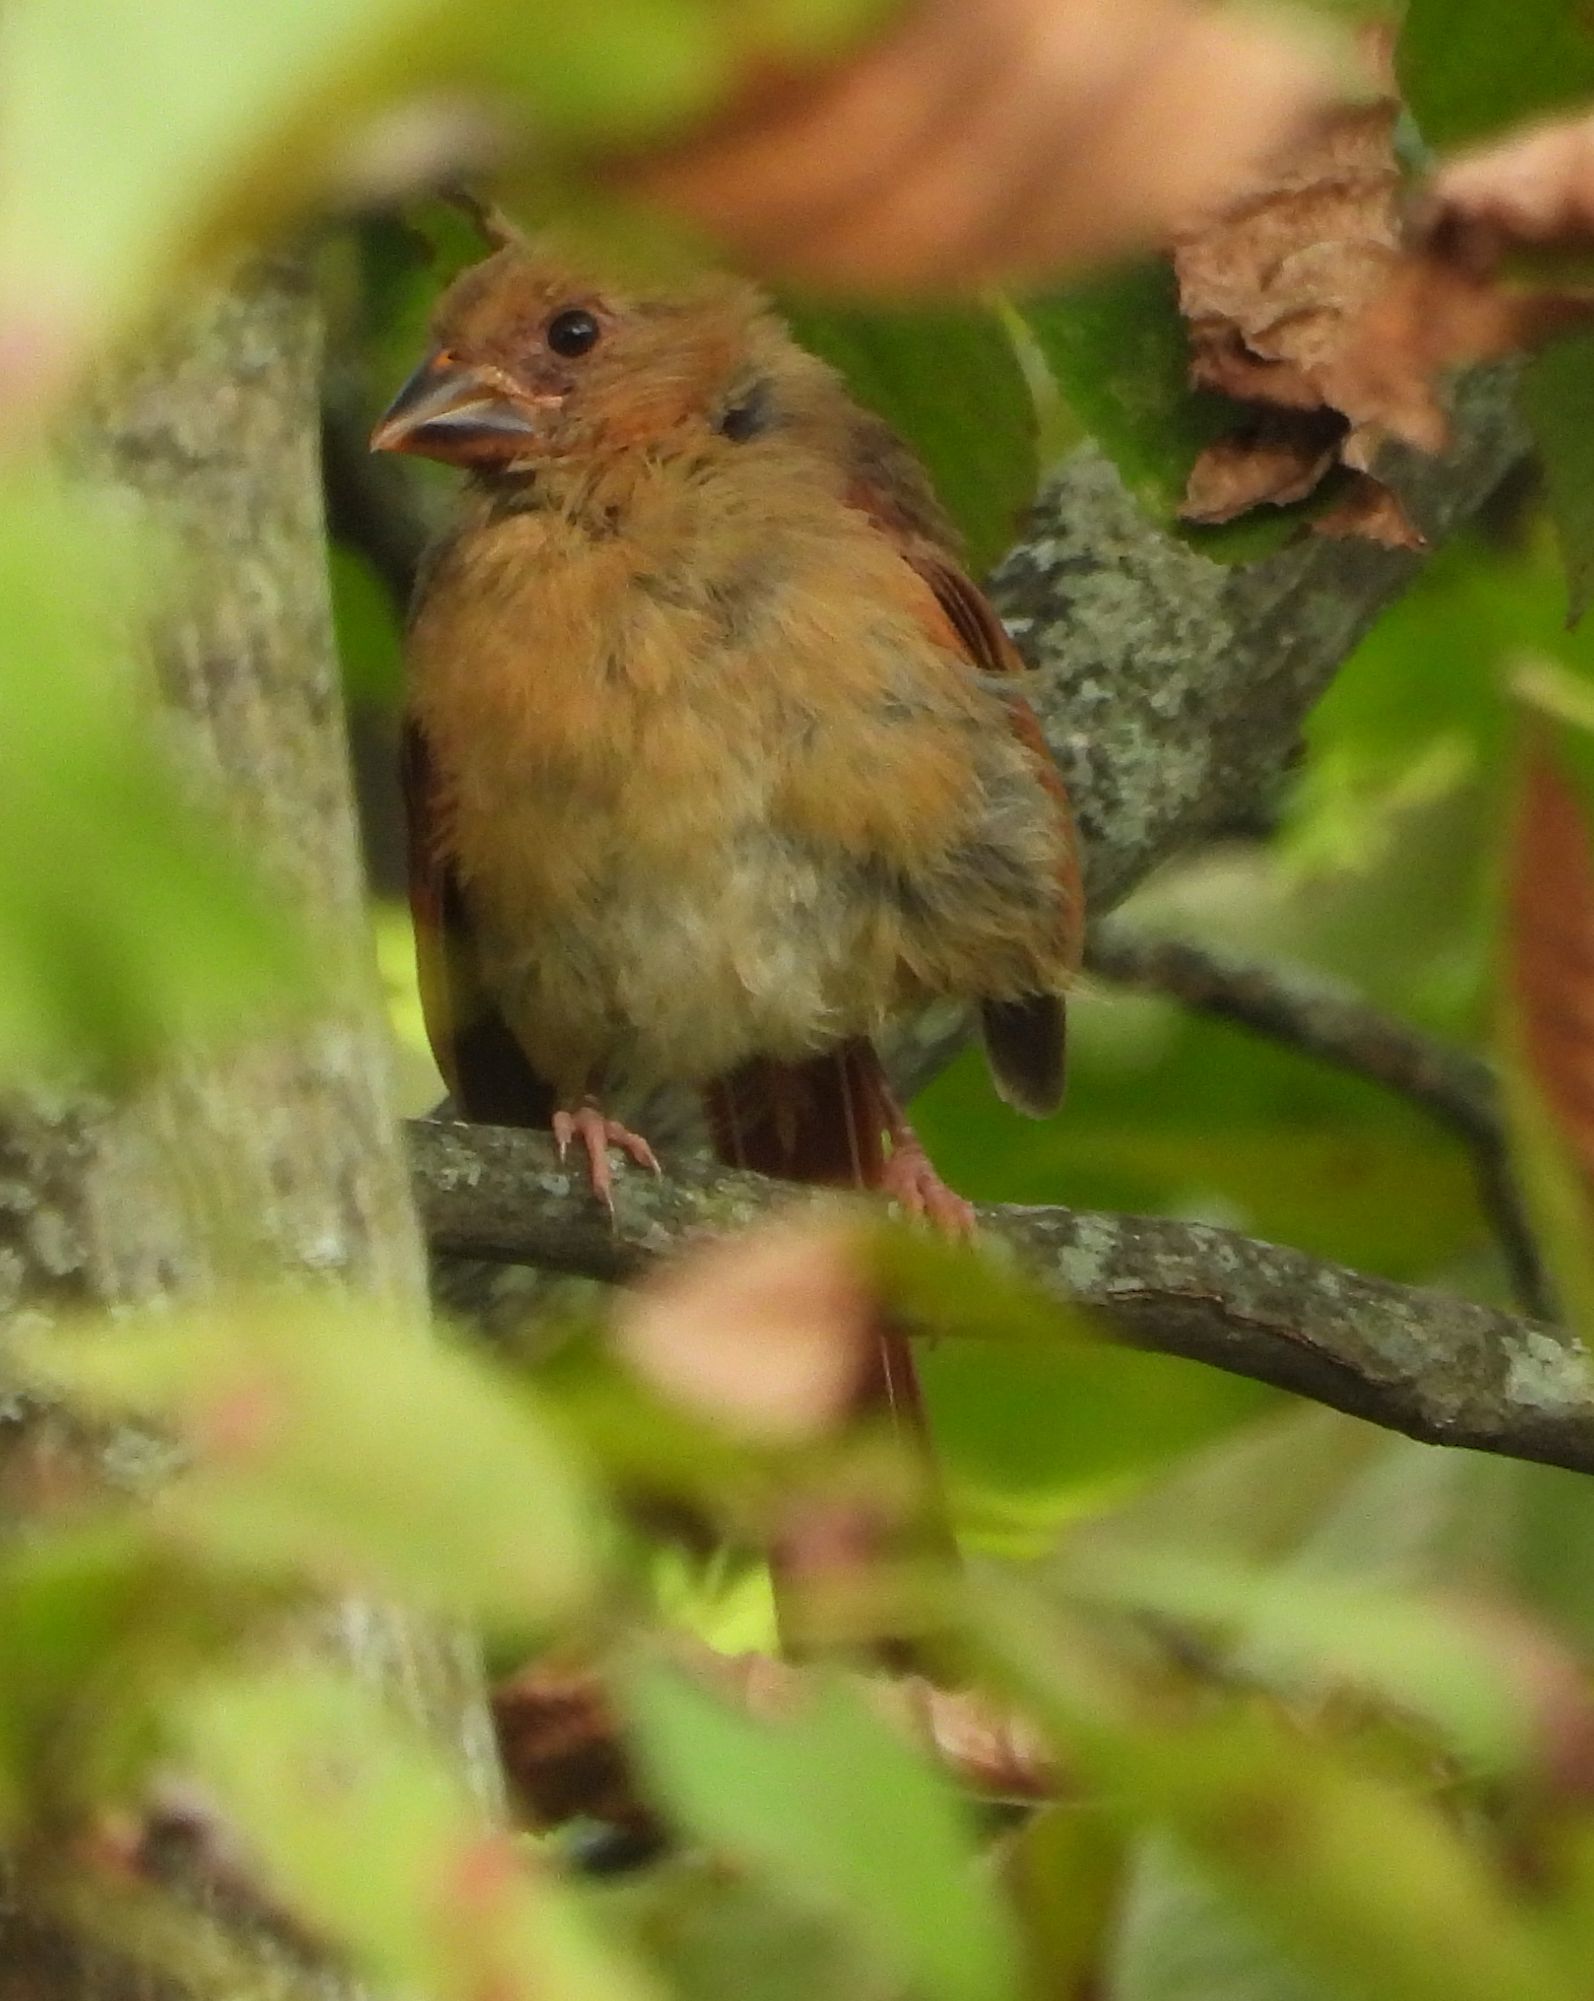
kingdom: Animalia
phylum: Chordata
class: Aves
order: Passeriformes
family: Cardinalidae
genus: Cardinalis
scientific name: Cardinalis cardinalis
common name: Northern cardinal
